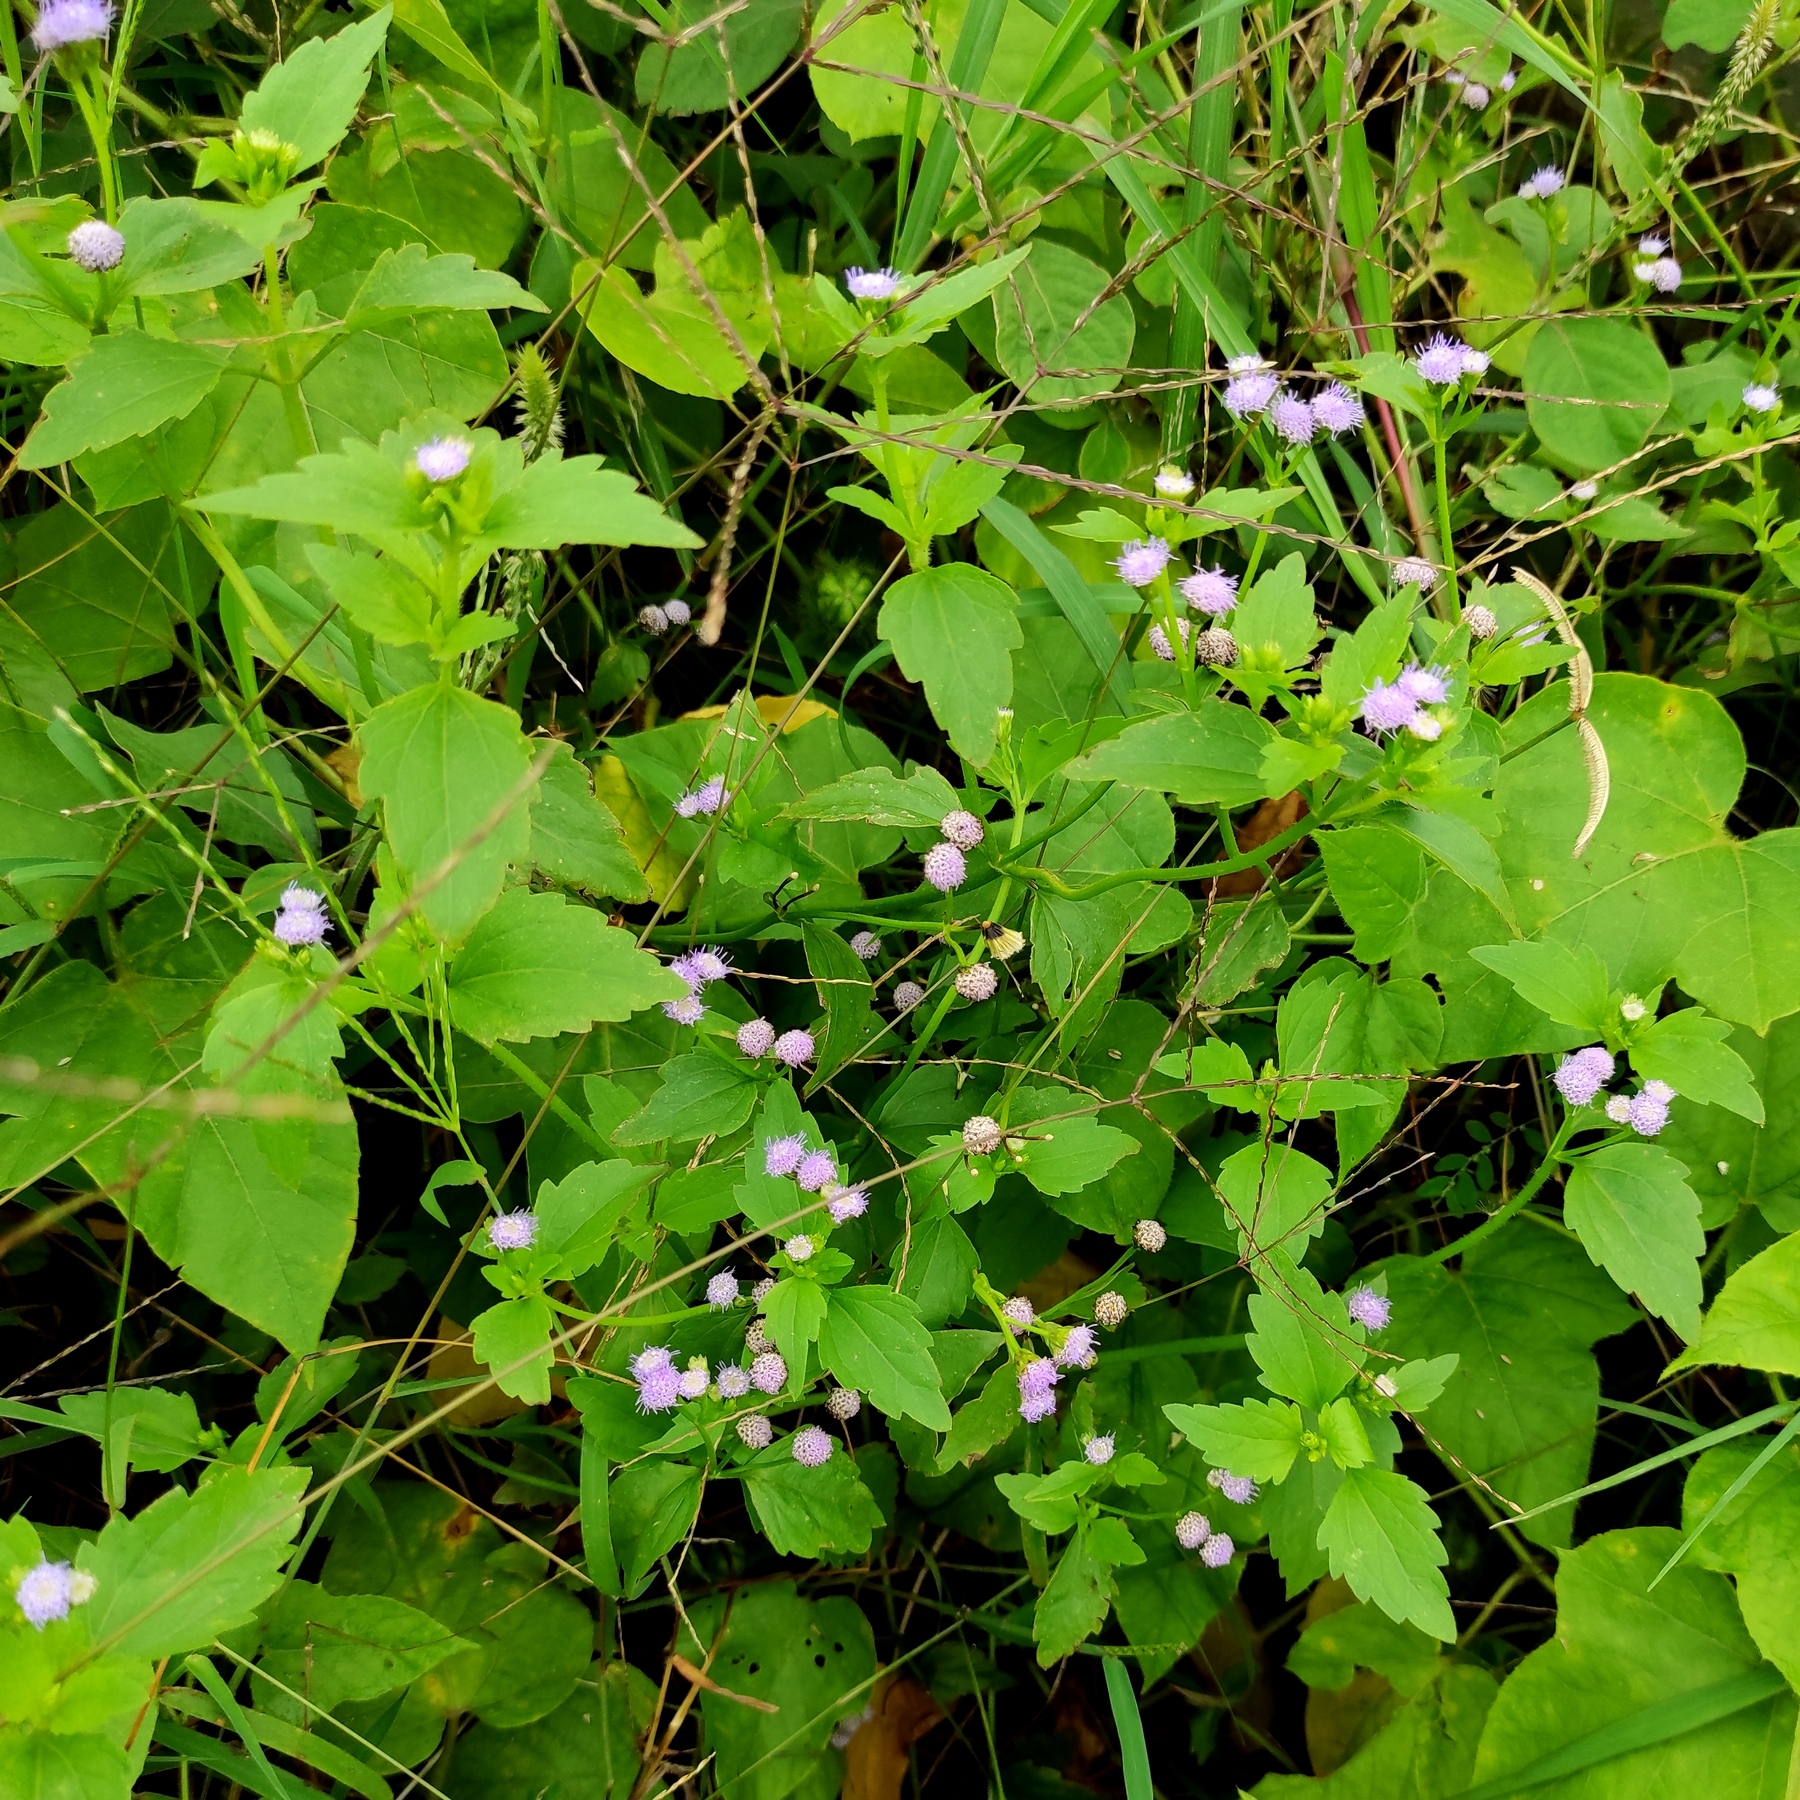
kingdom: Plantae
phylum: Tracheophyta
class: Magnoliopsida
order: Asterales
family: Asteraceae
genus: Praxelis
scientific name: Praxelis clematidea
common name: Praxelis
